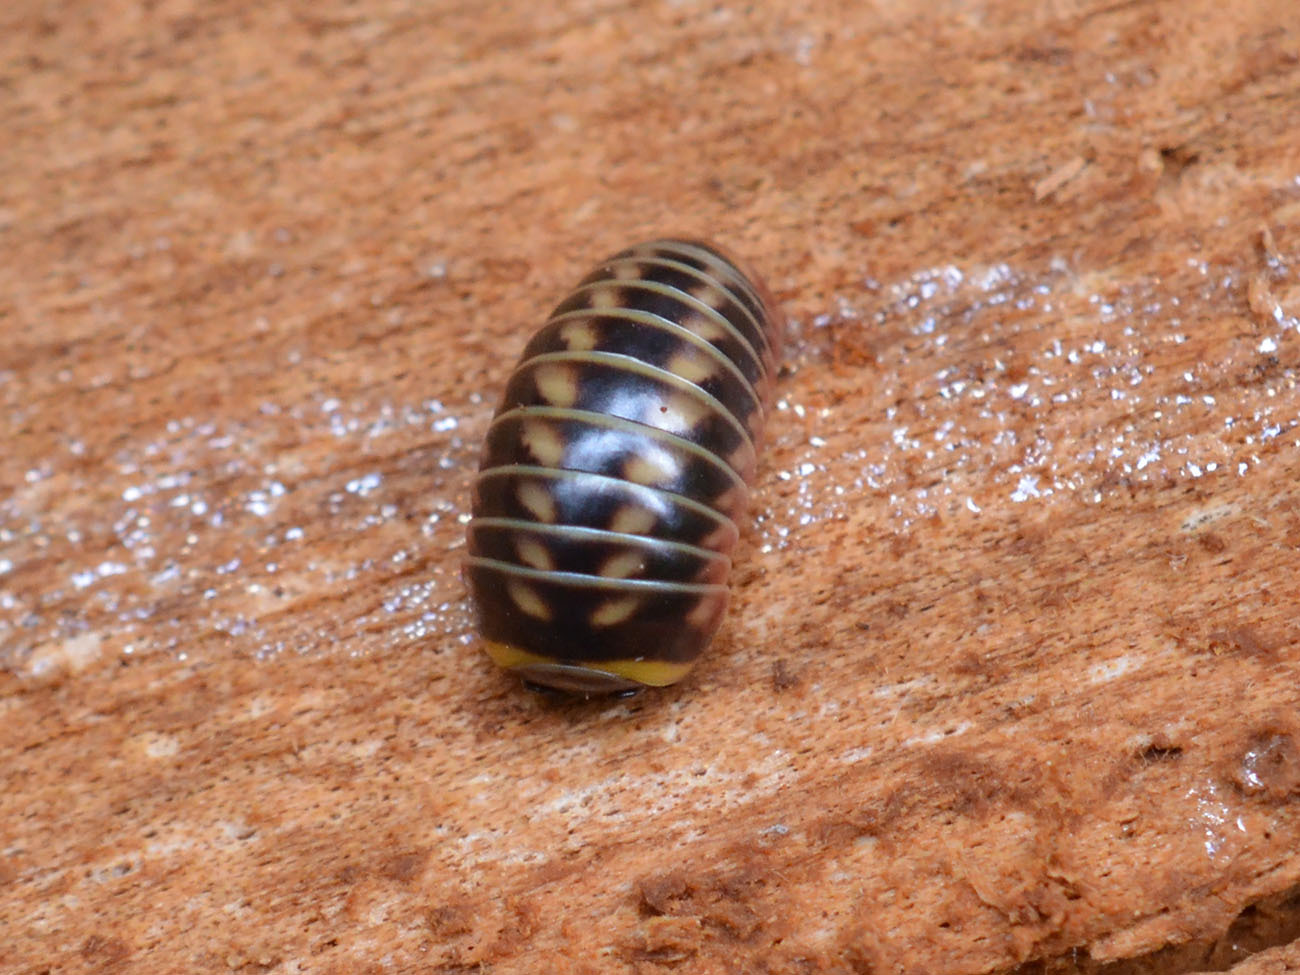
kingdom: Animalia
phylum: Arthropoda
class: Diplopoda
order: Glomerida
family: Glomeridae
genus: Glomeris
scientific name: Glomeris balcanica
